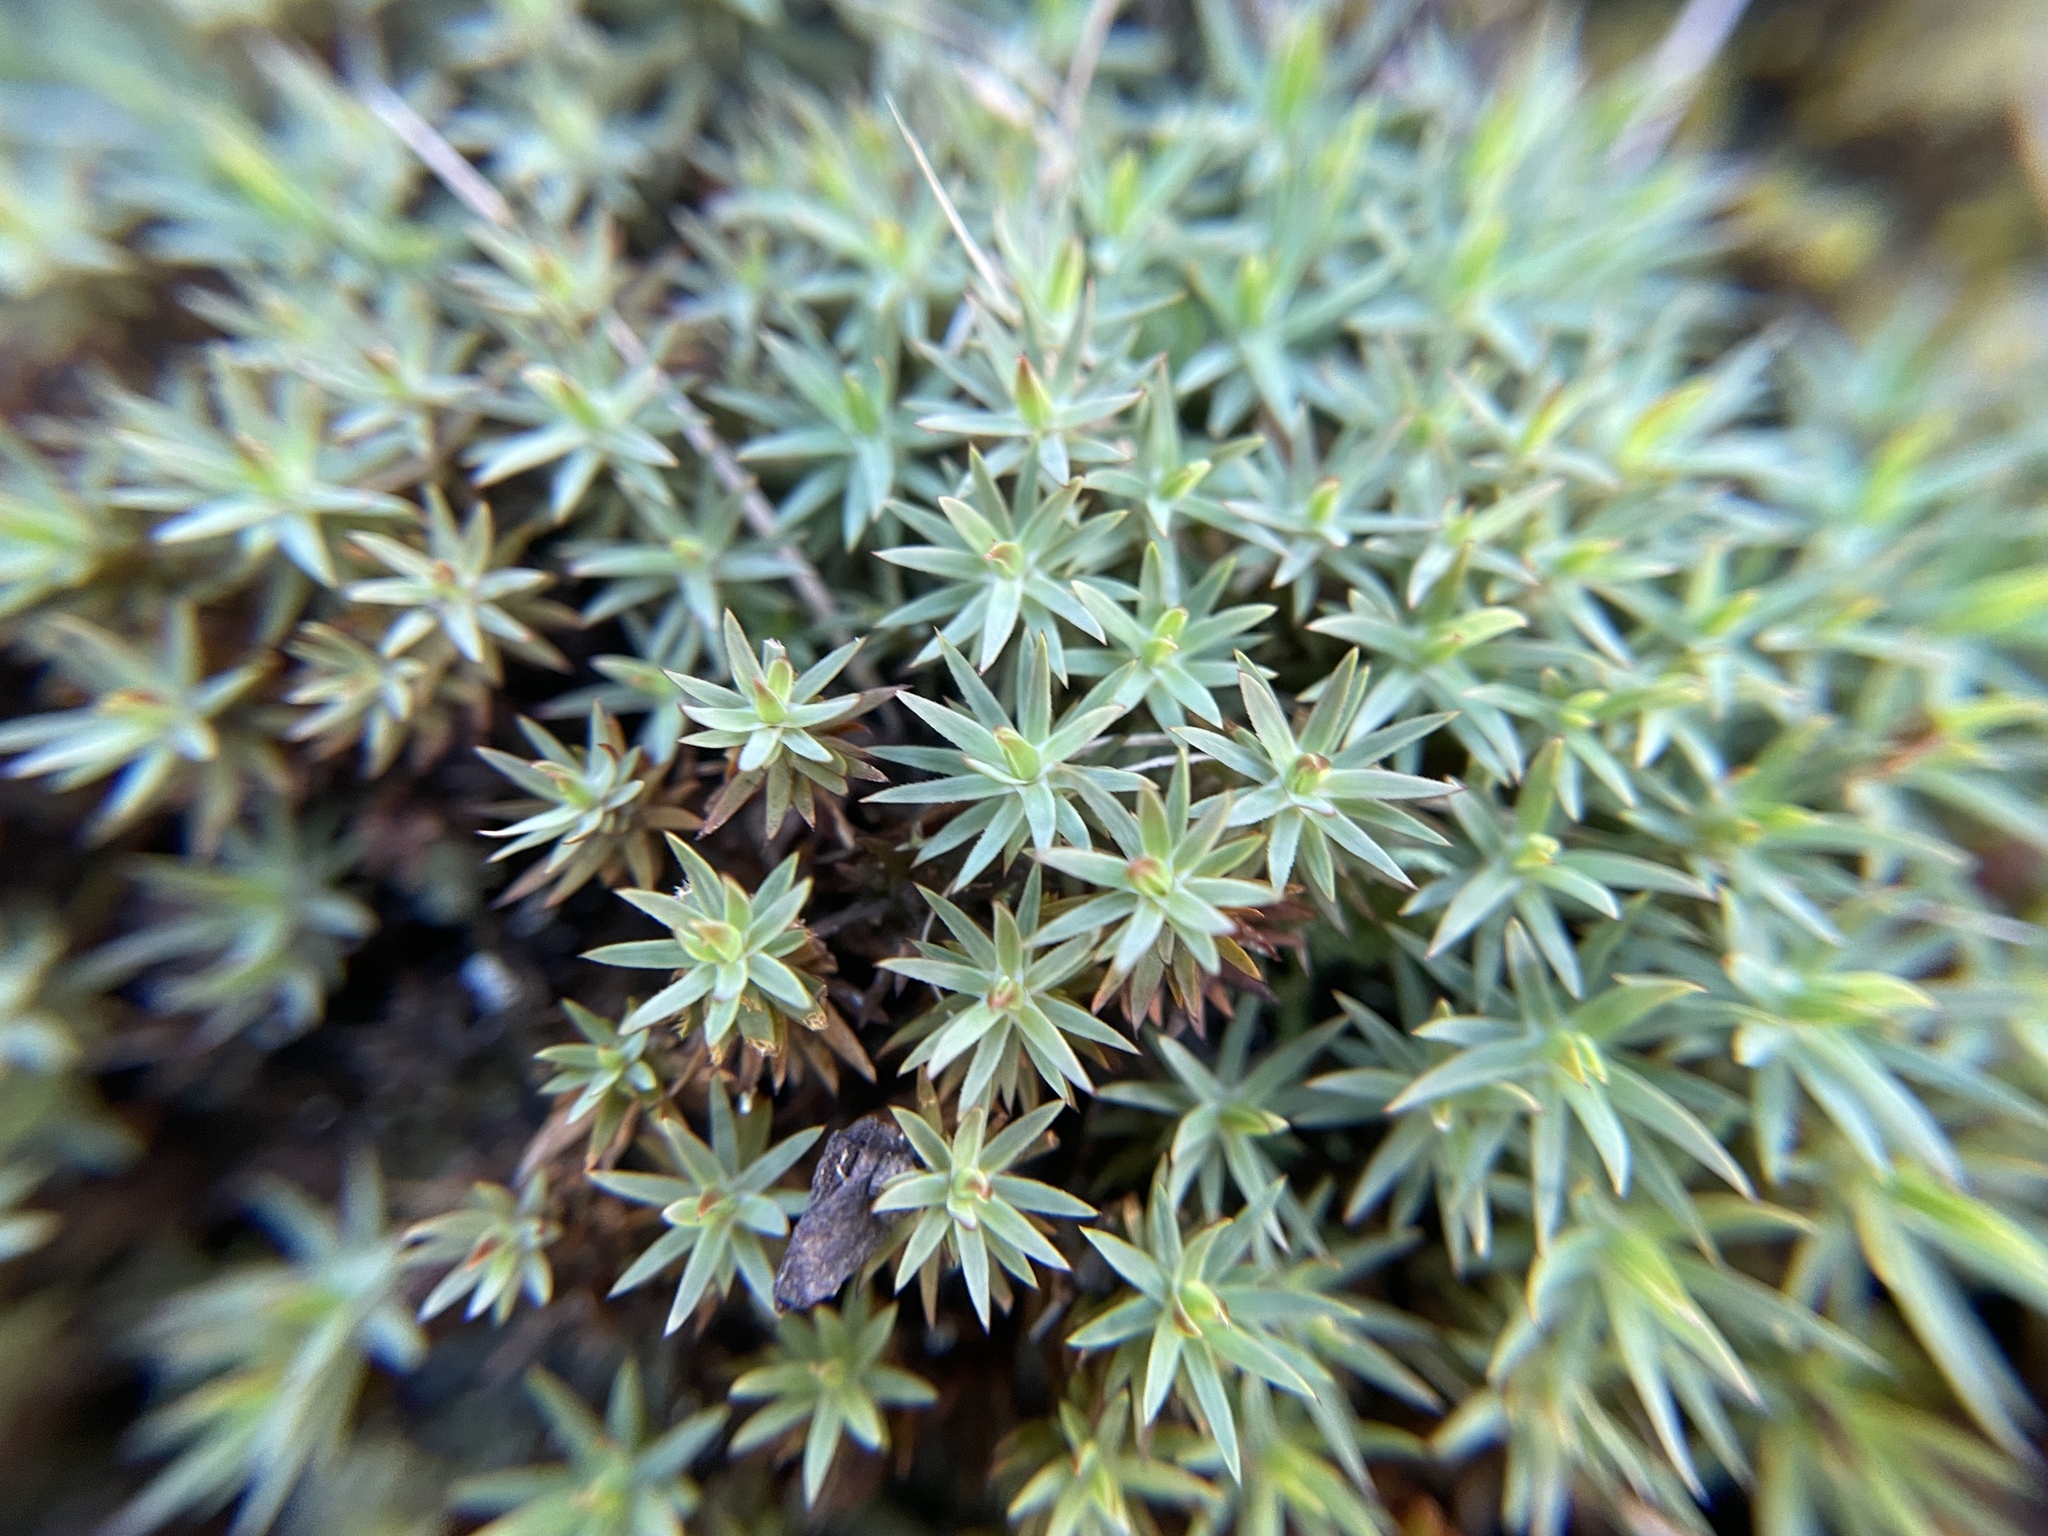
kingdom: Plantae
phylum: Bryophyta
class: Polytrichopsida
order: Polytrichales
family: Polytrichaceae
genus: Pogonatum
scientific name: Pogonatum urnigerum
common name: Urn hair moss
